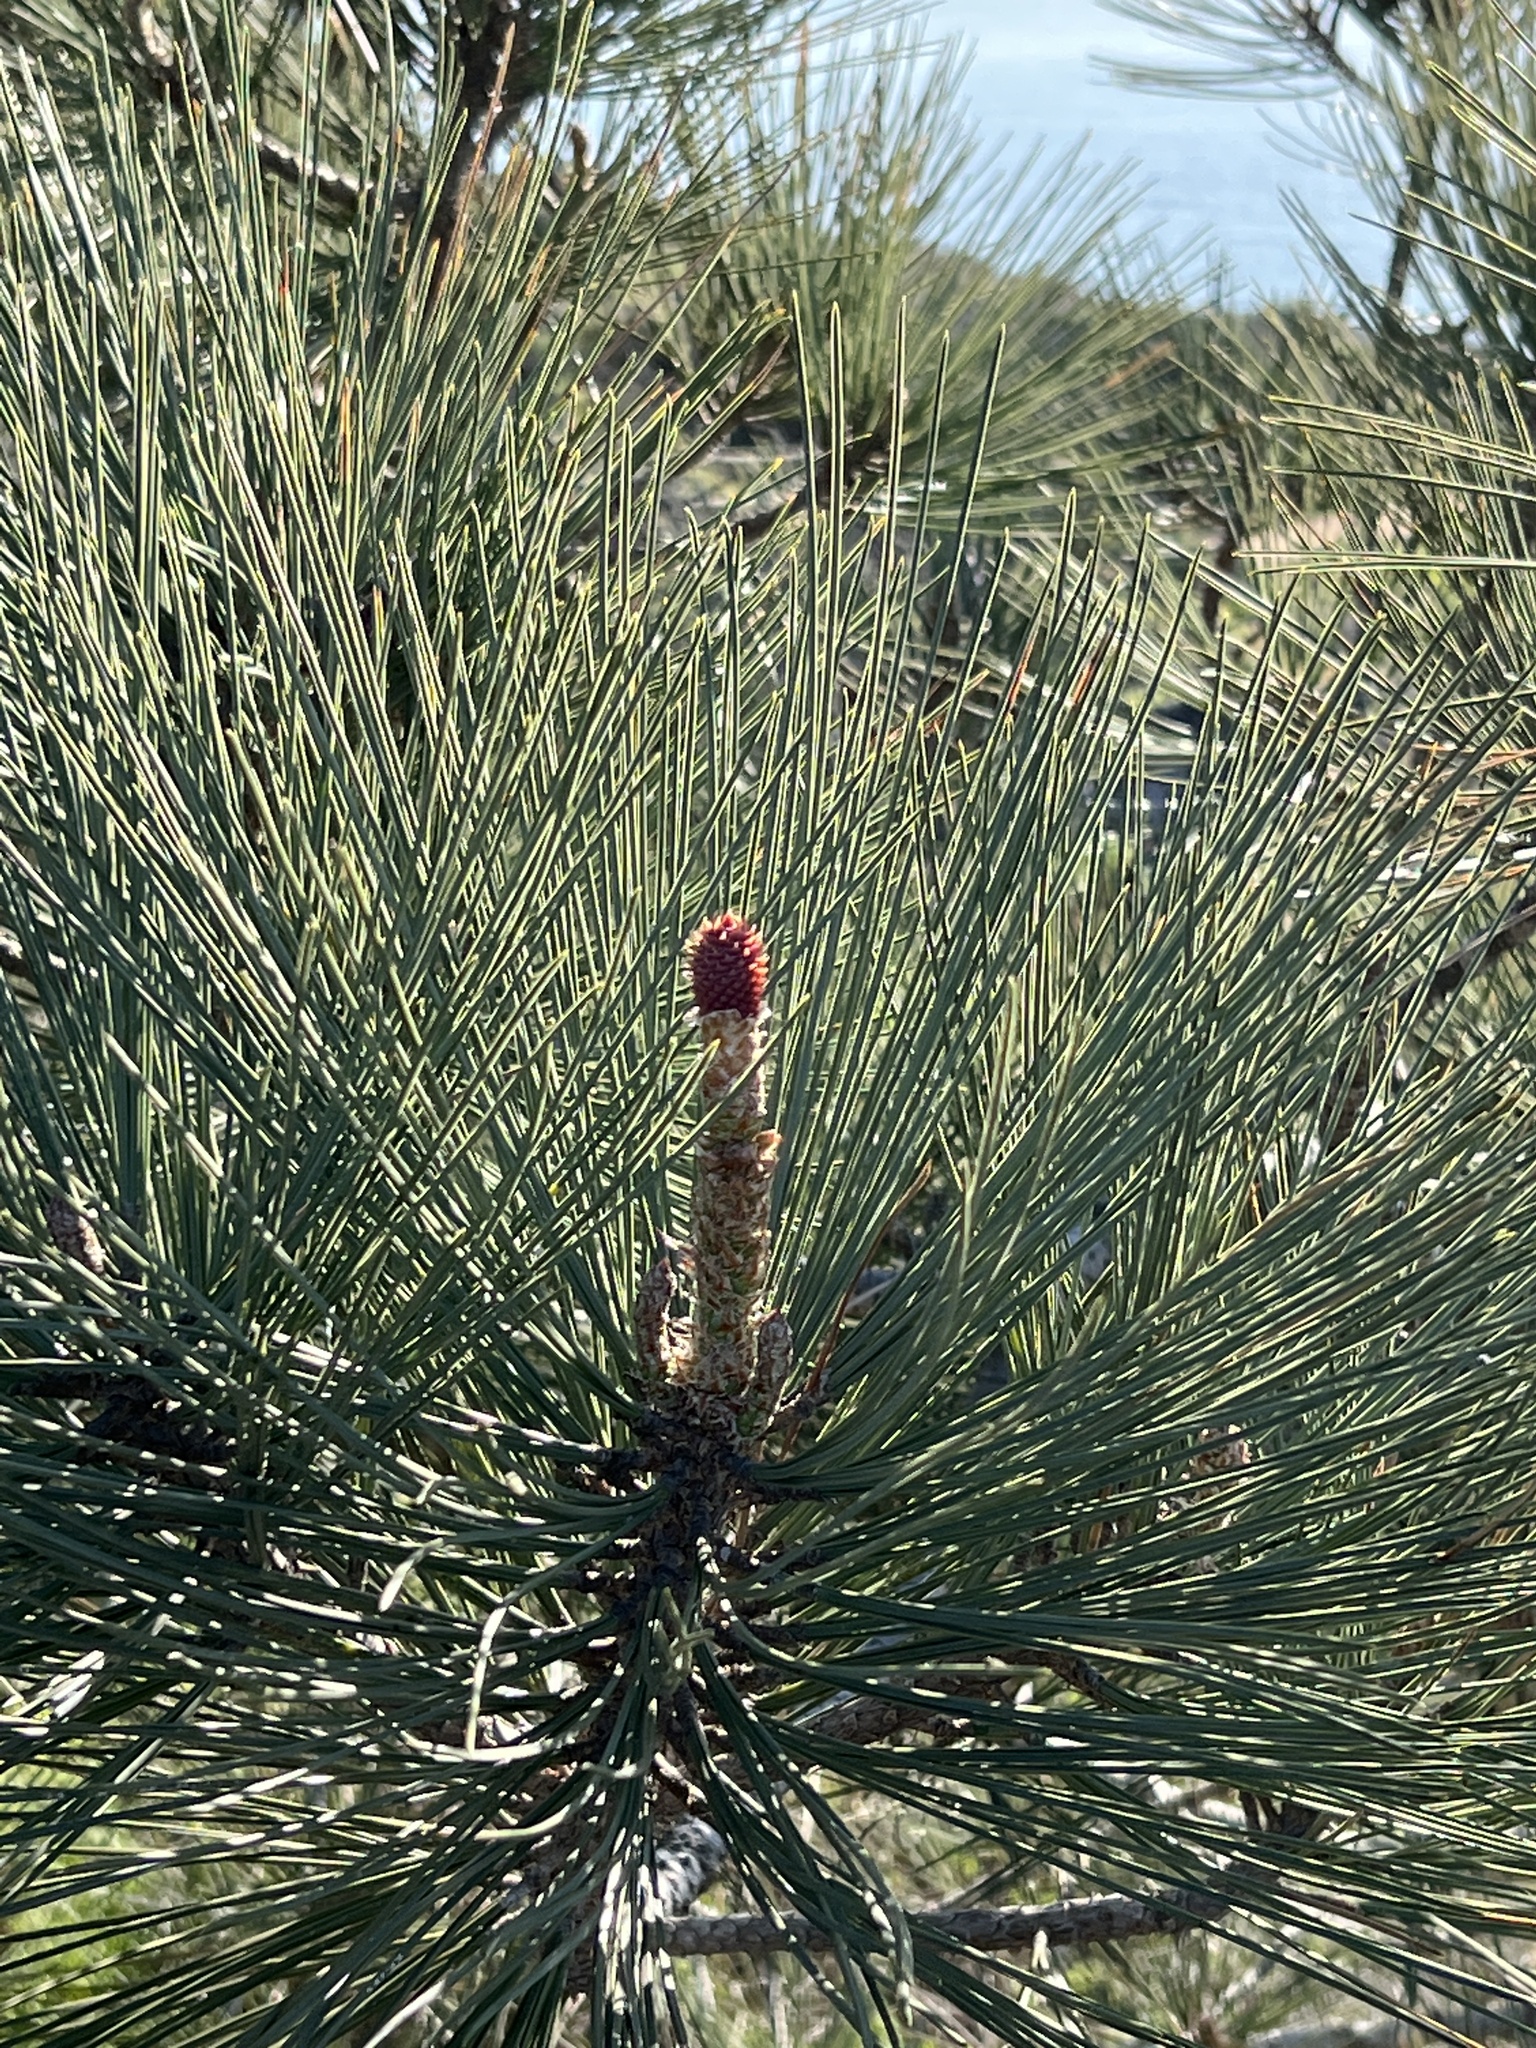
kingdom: Plantae
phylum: Tracheophyta
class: Pinopsida
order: Pinales
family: Pinaceae
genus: Pinus
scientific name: Pinus torreyana
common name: Torrey pine
